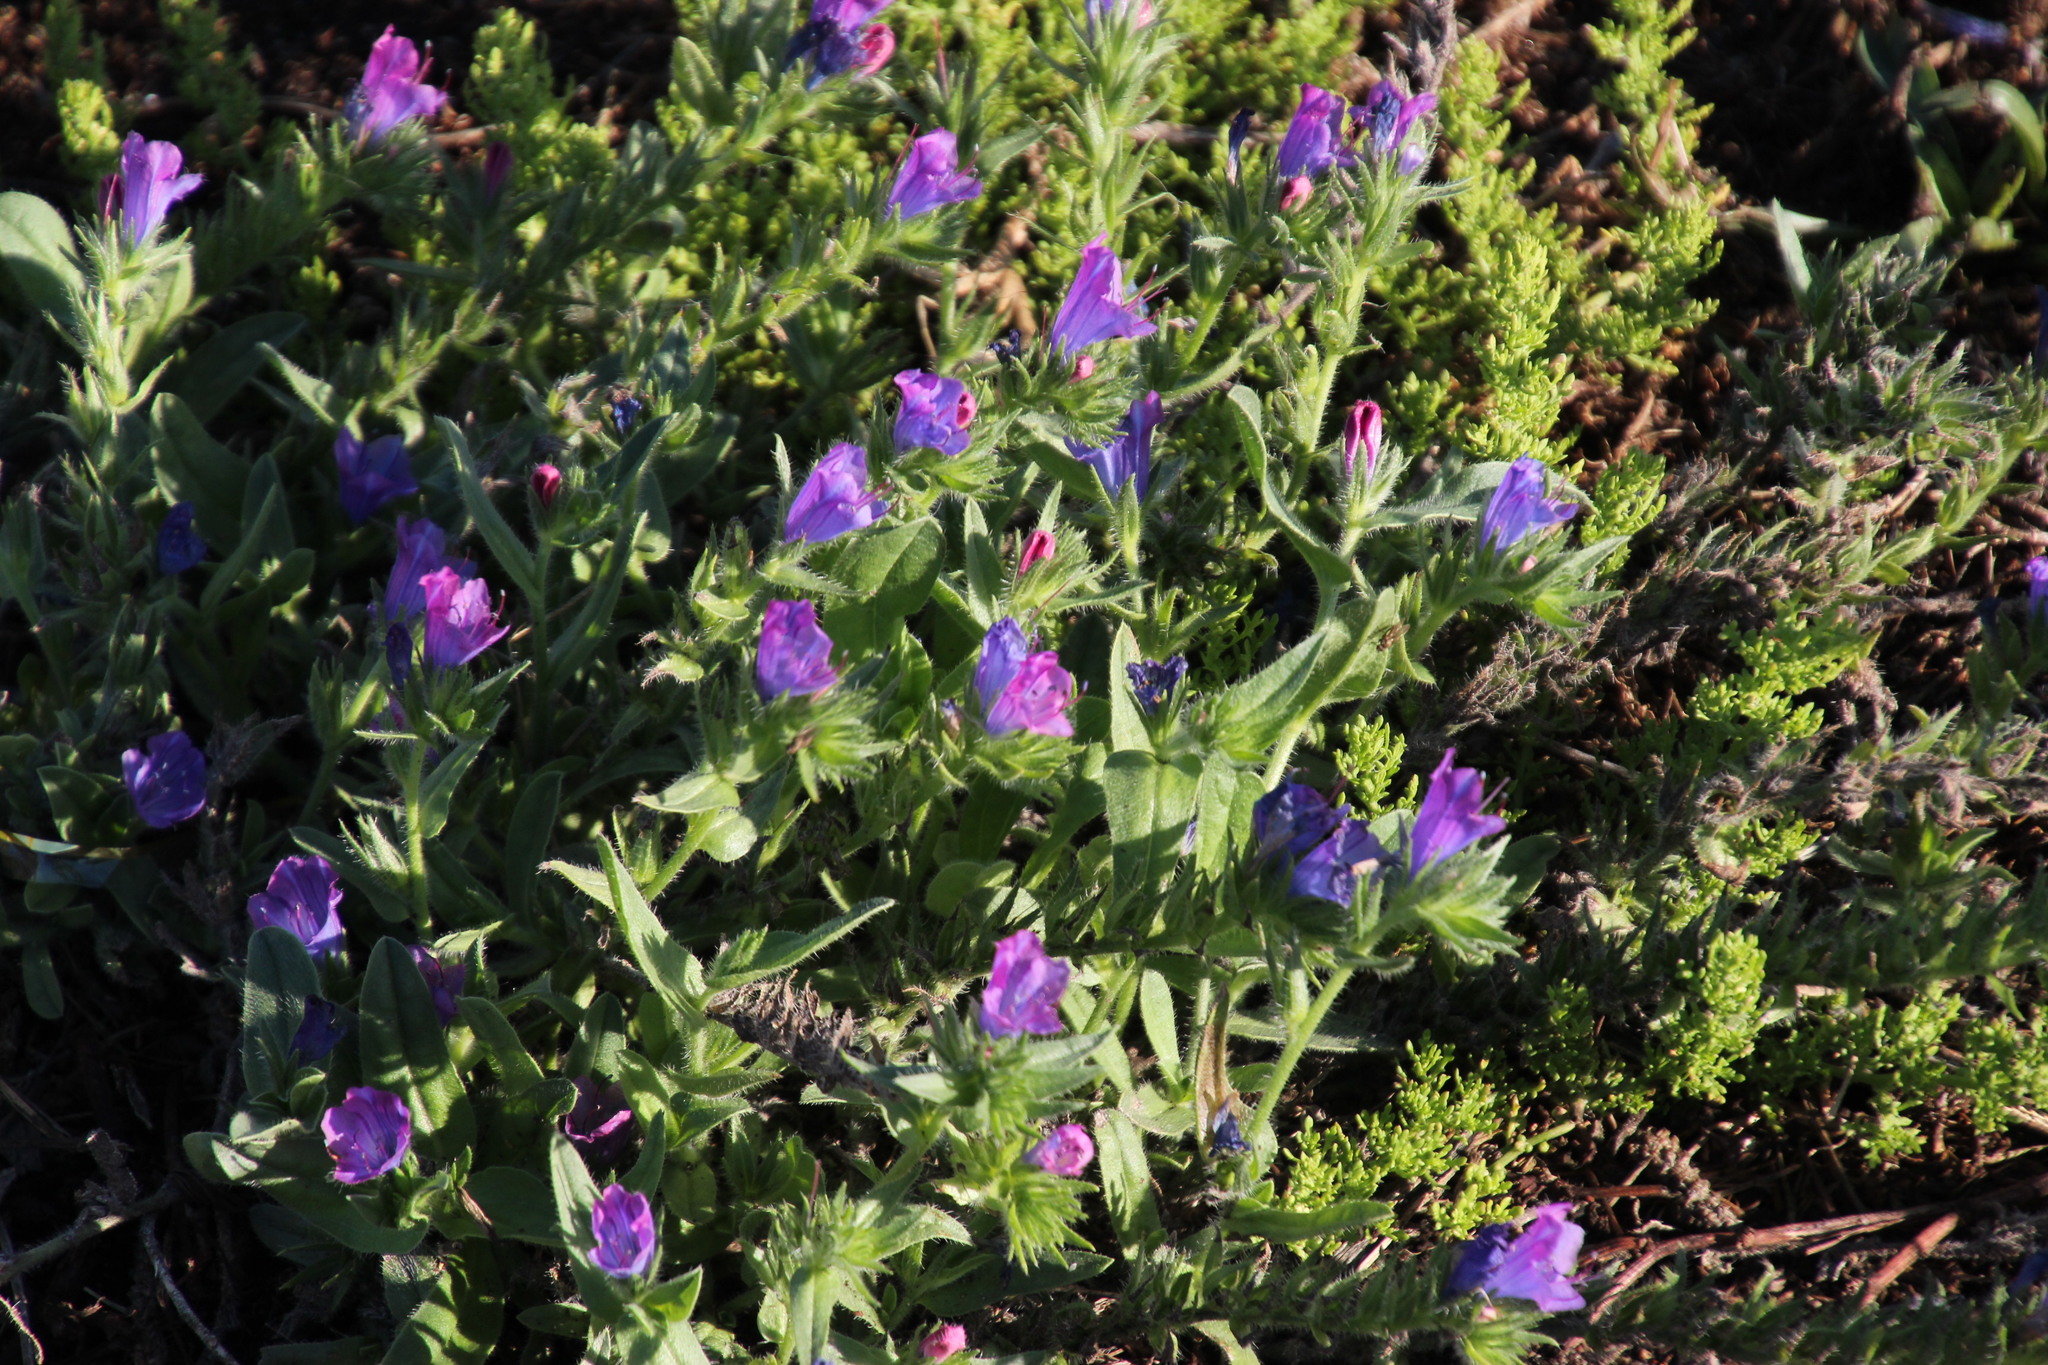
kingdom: Plantae
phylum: Tracheophyta
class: Magnoliopsida
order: Boraginales
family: Boraginaceae
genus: Echium
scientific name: Echium plantagineum
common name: Purple viper's-bugloss
